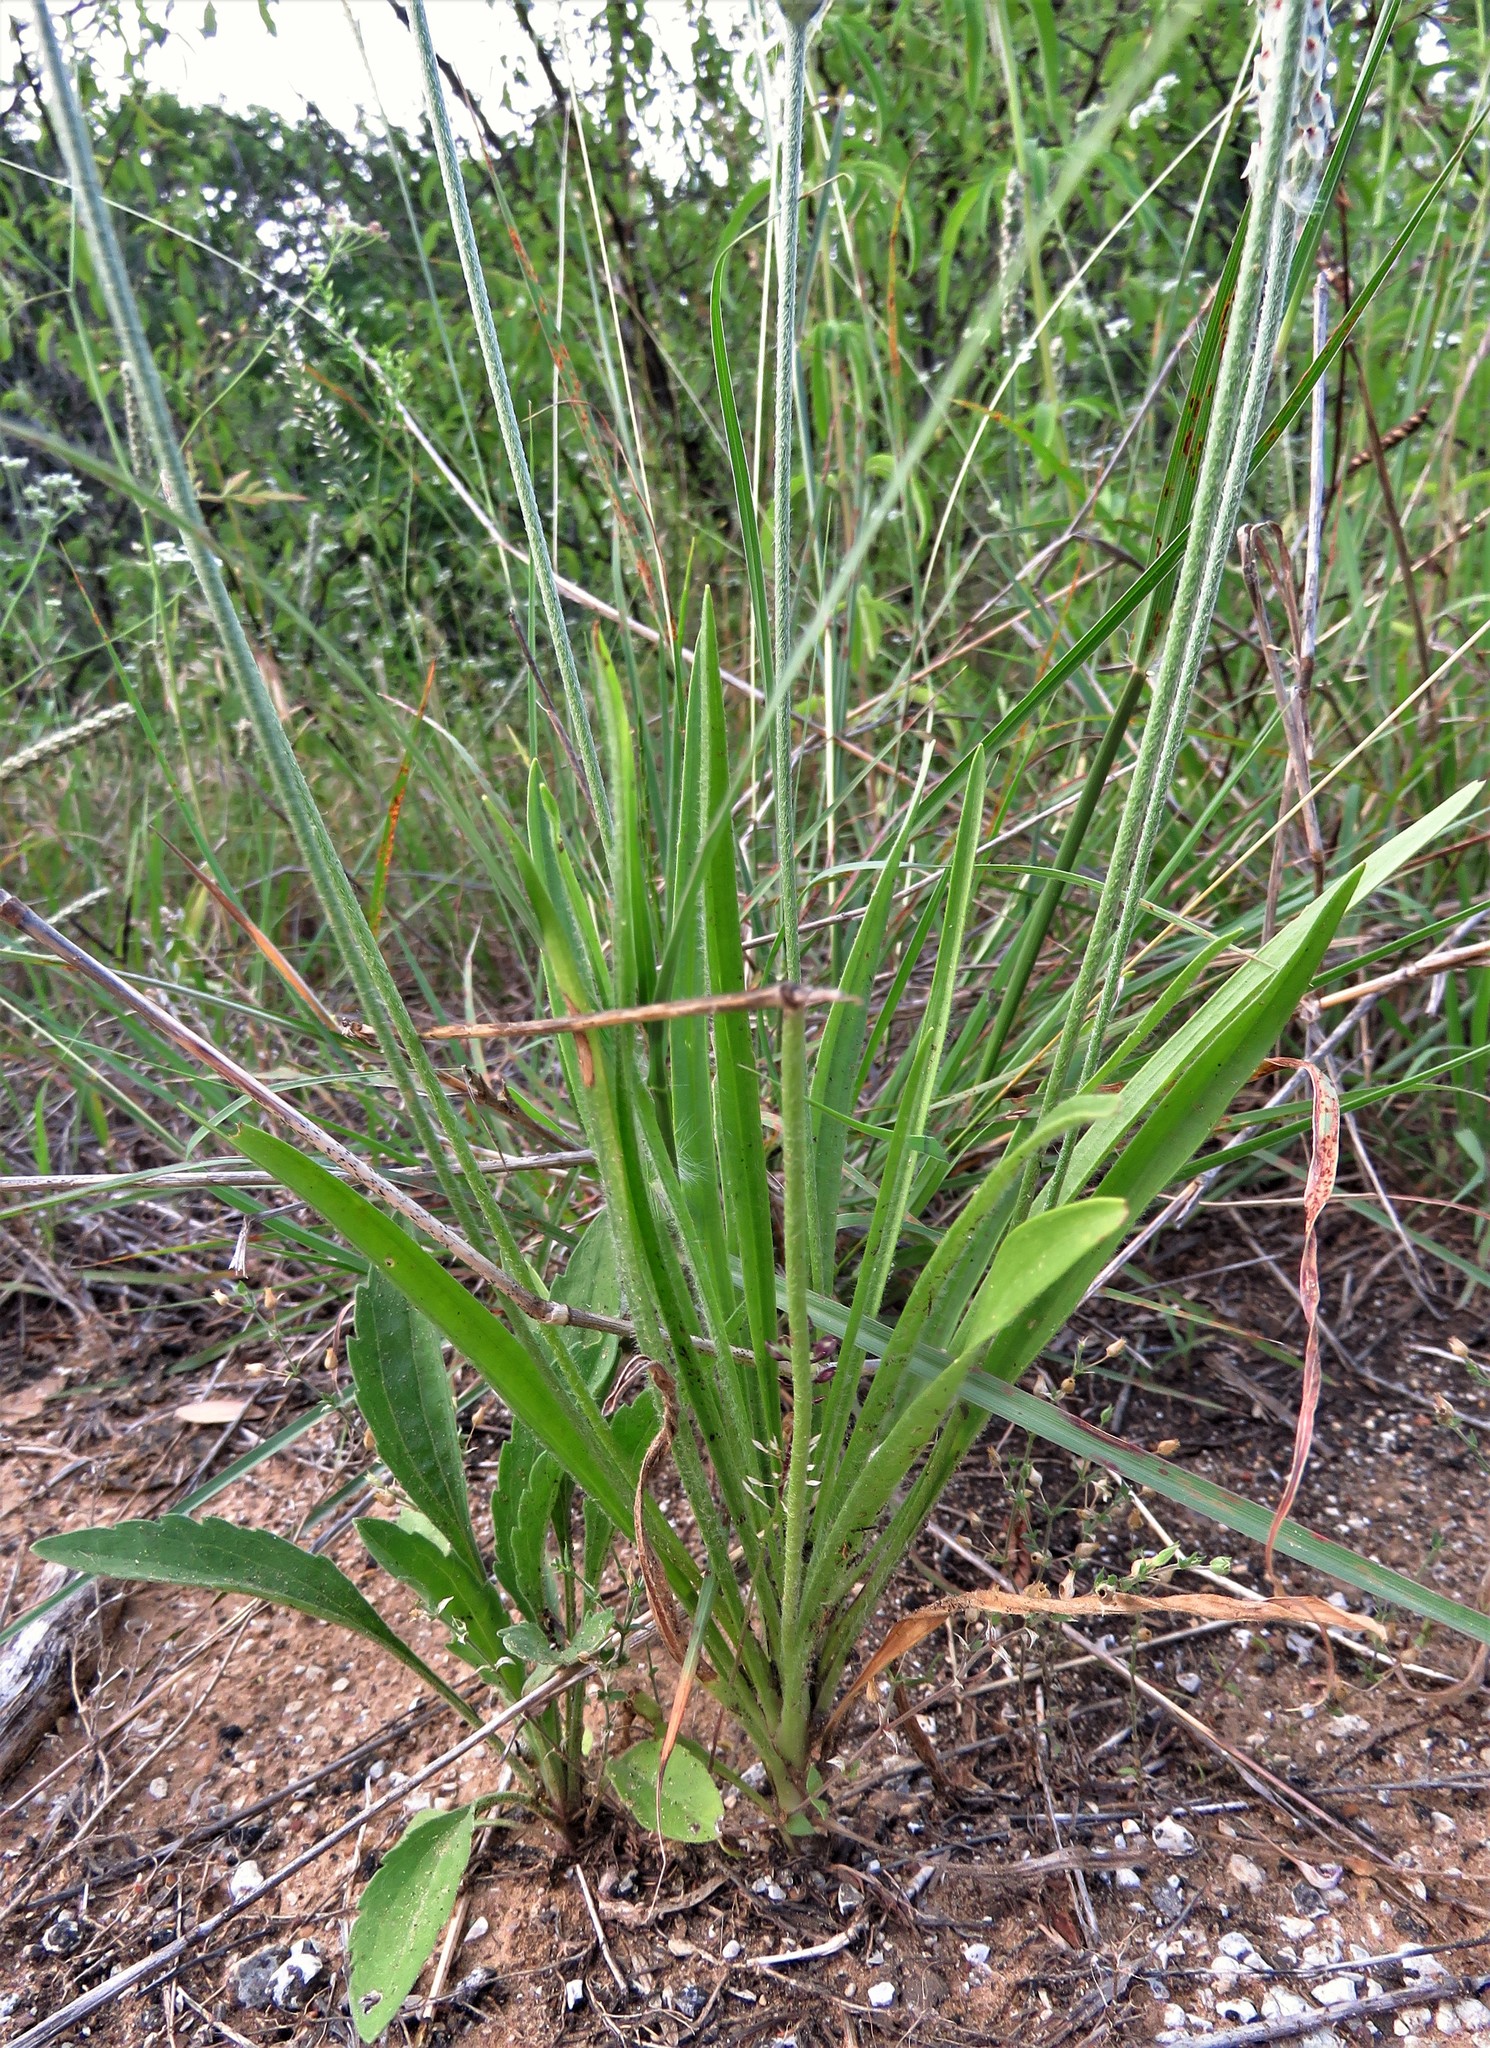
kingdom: Plantae
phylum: Tracheophyta
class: Magnoliopsida
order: Lamiales
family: Plantaginaceae
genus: Plantago
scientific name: Plantago wrightiana
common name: Wright's plantain
